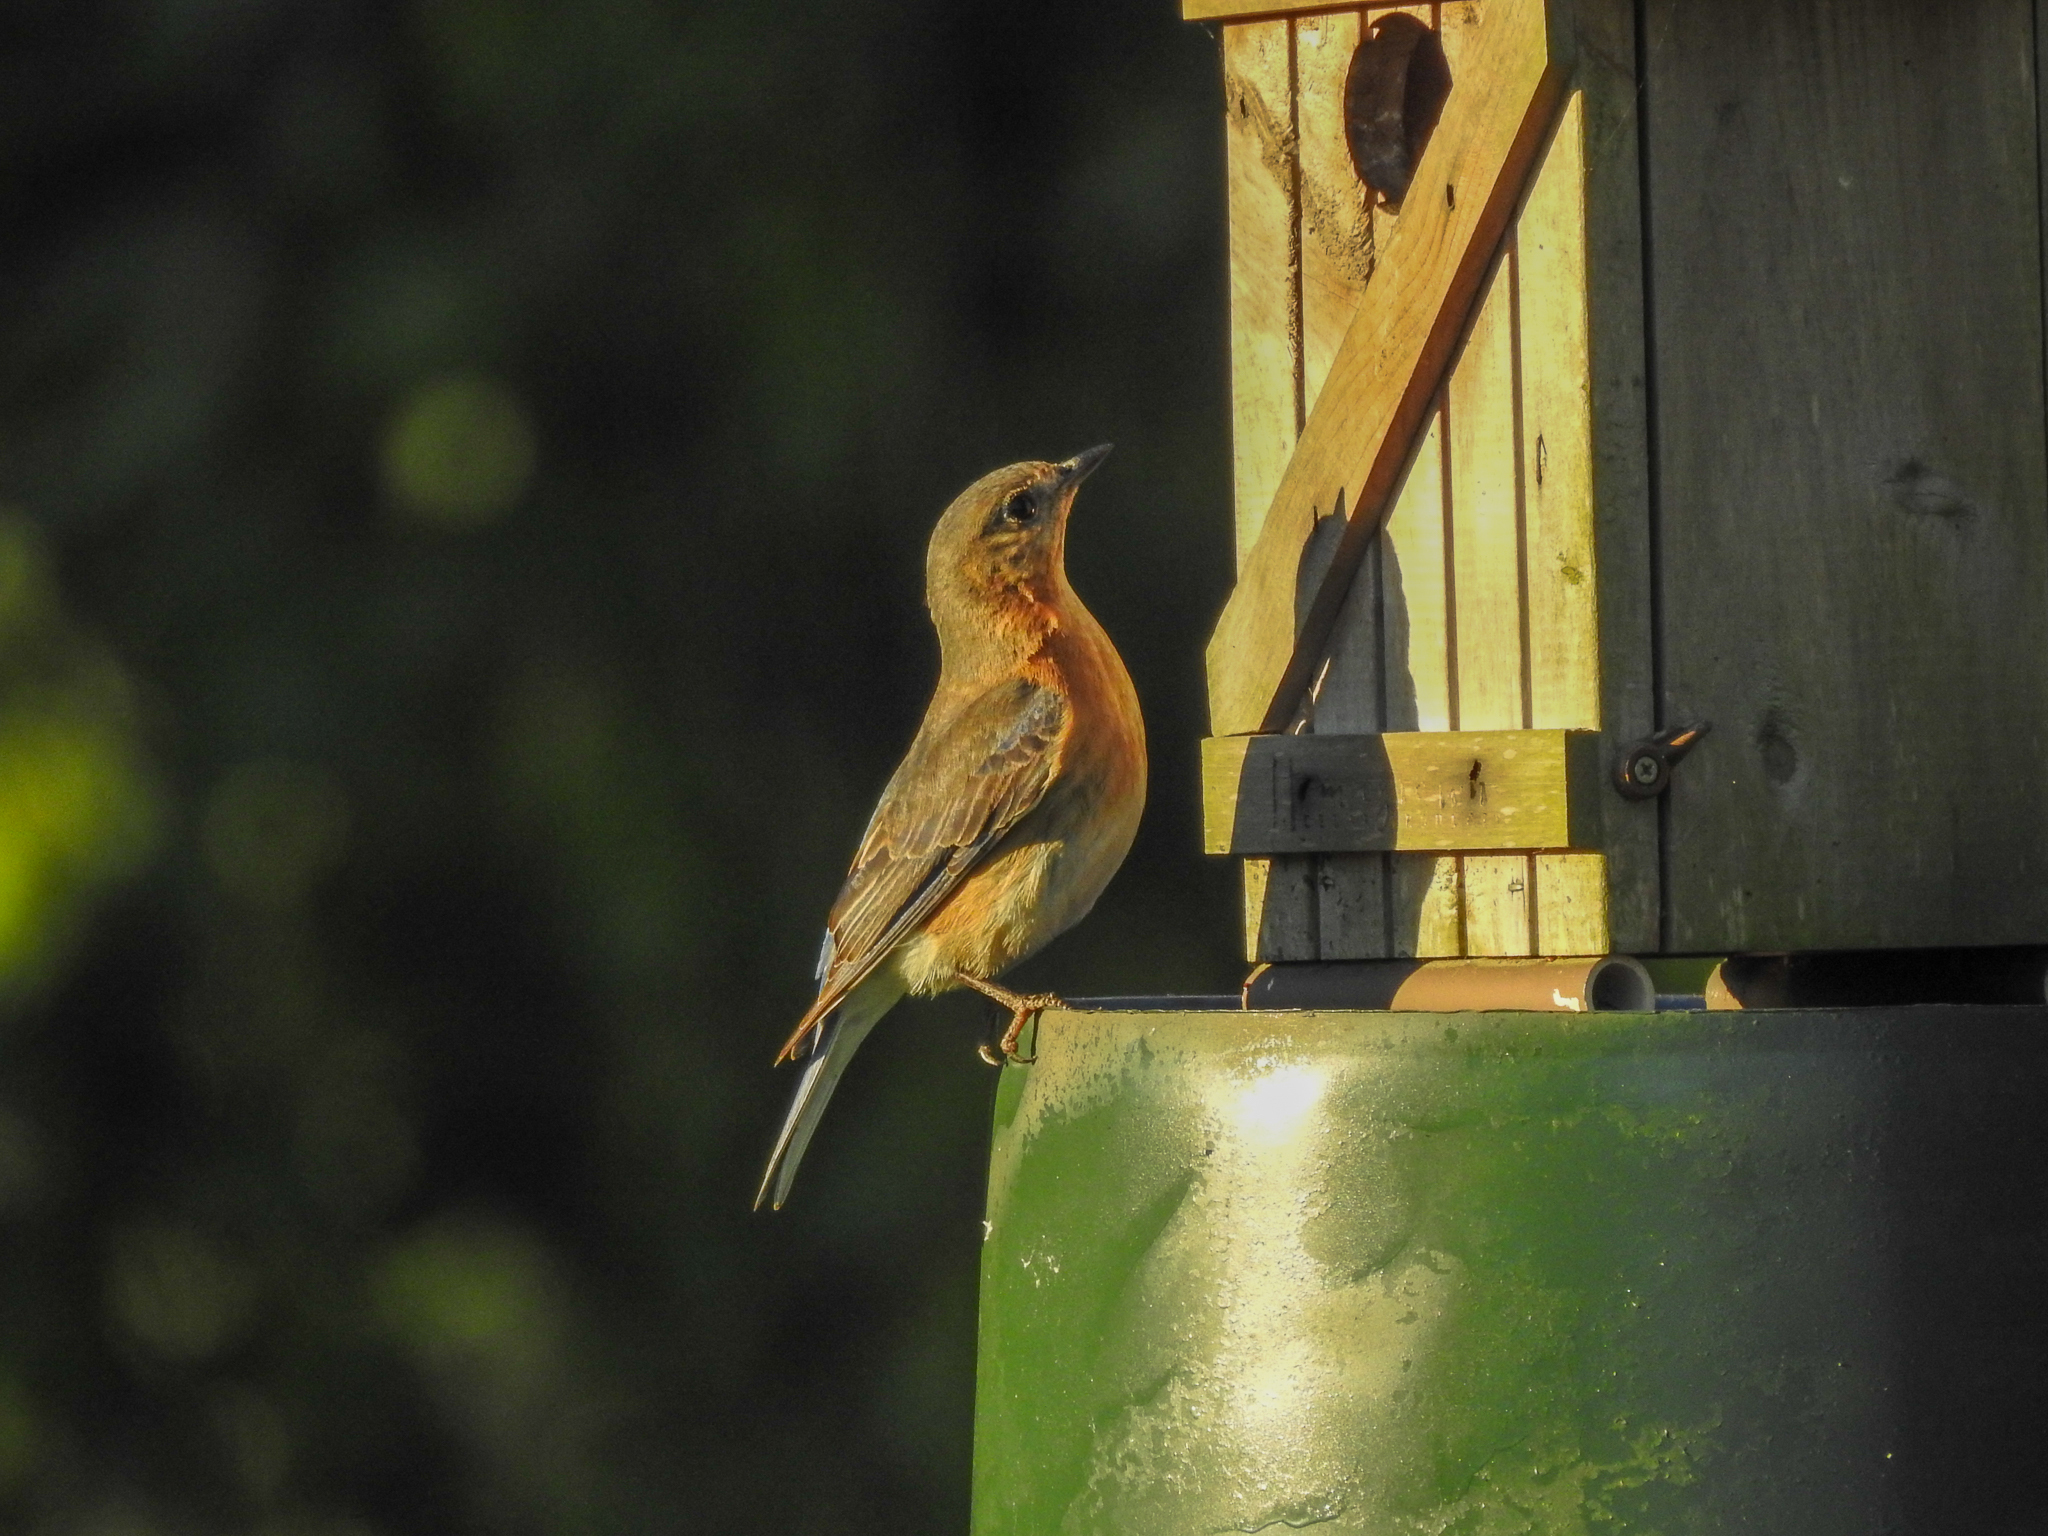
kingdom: Animalia
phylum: Chordata
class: Aves
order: Passeriformes
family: Turdidae
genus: Sialia
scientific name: Sialia sialis
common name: Eastern bluebird
